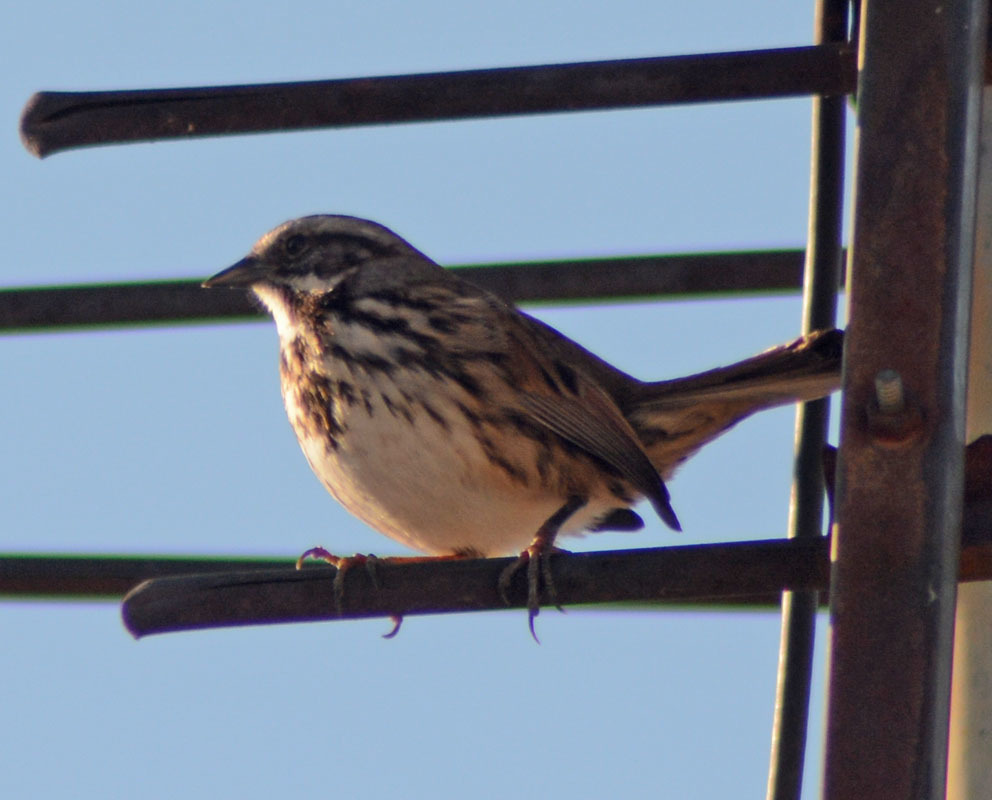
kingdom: Animalia
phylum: Chordata
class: Aves
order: Passeriformes
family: Passerellidae
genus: Melospiza
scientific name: Melospiza melodia
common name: Song sparrow
